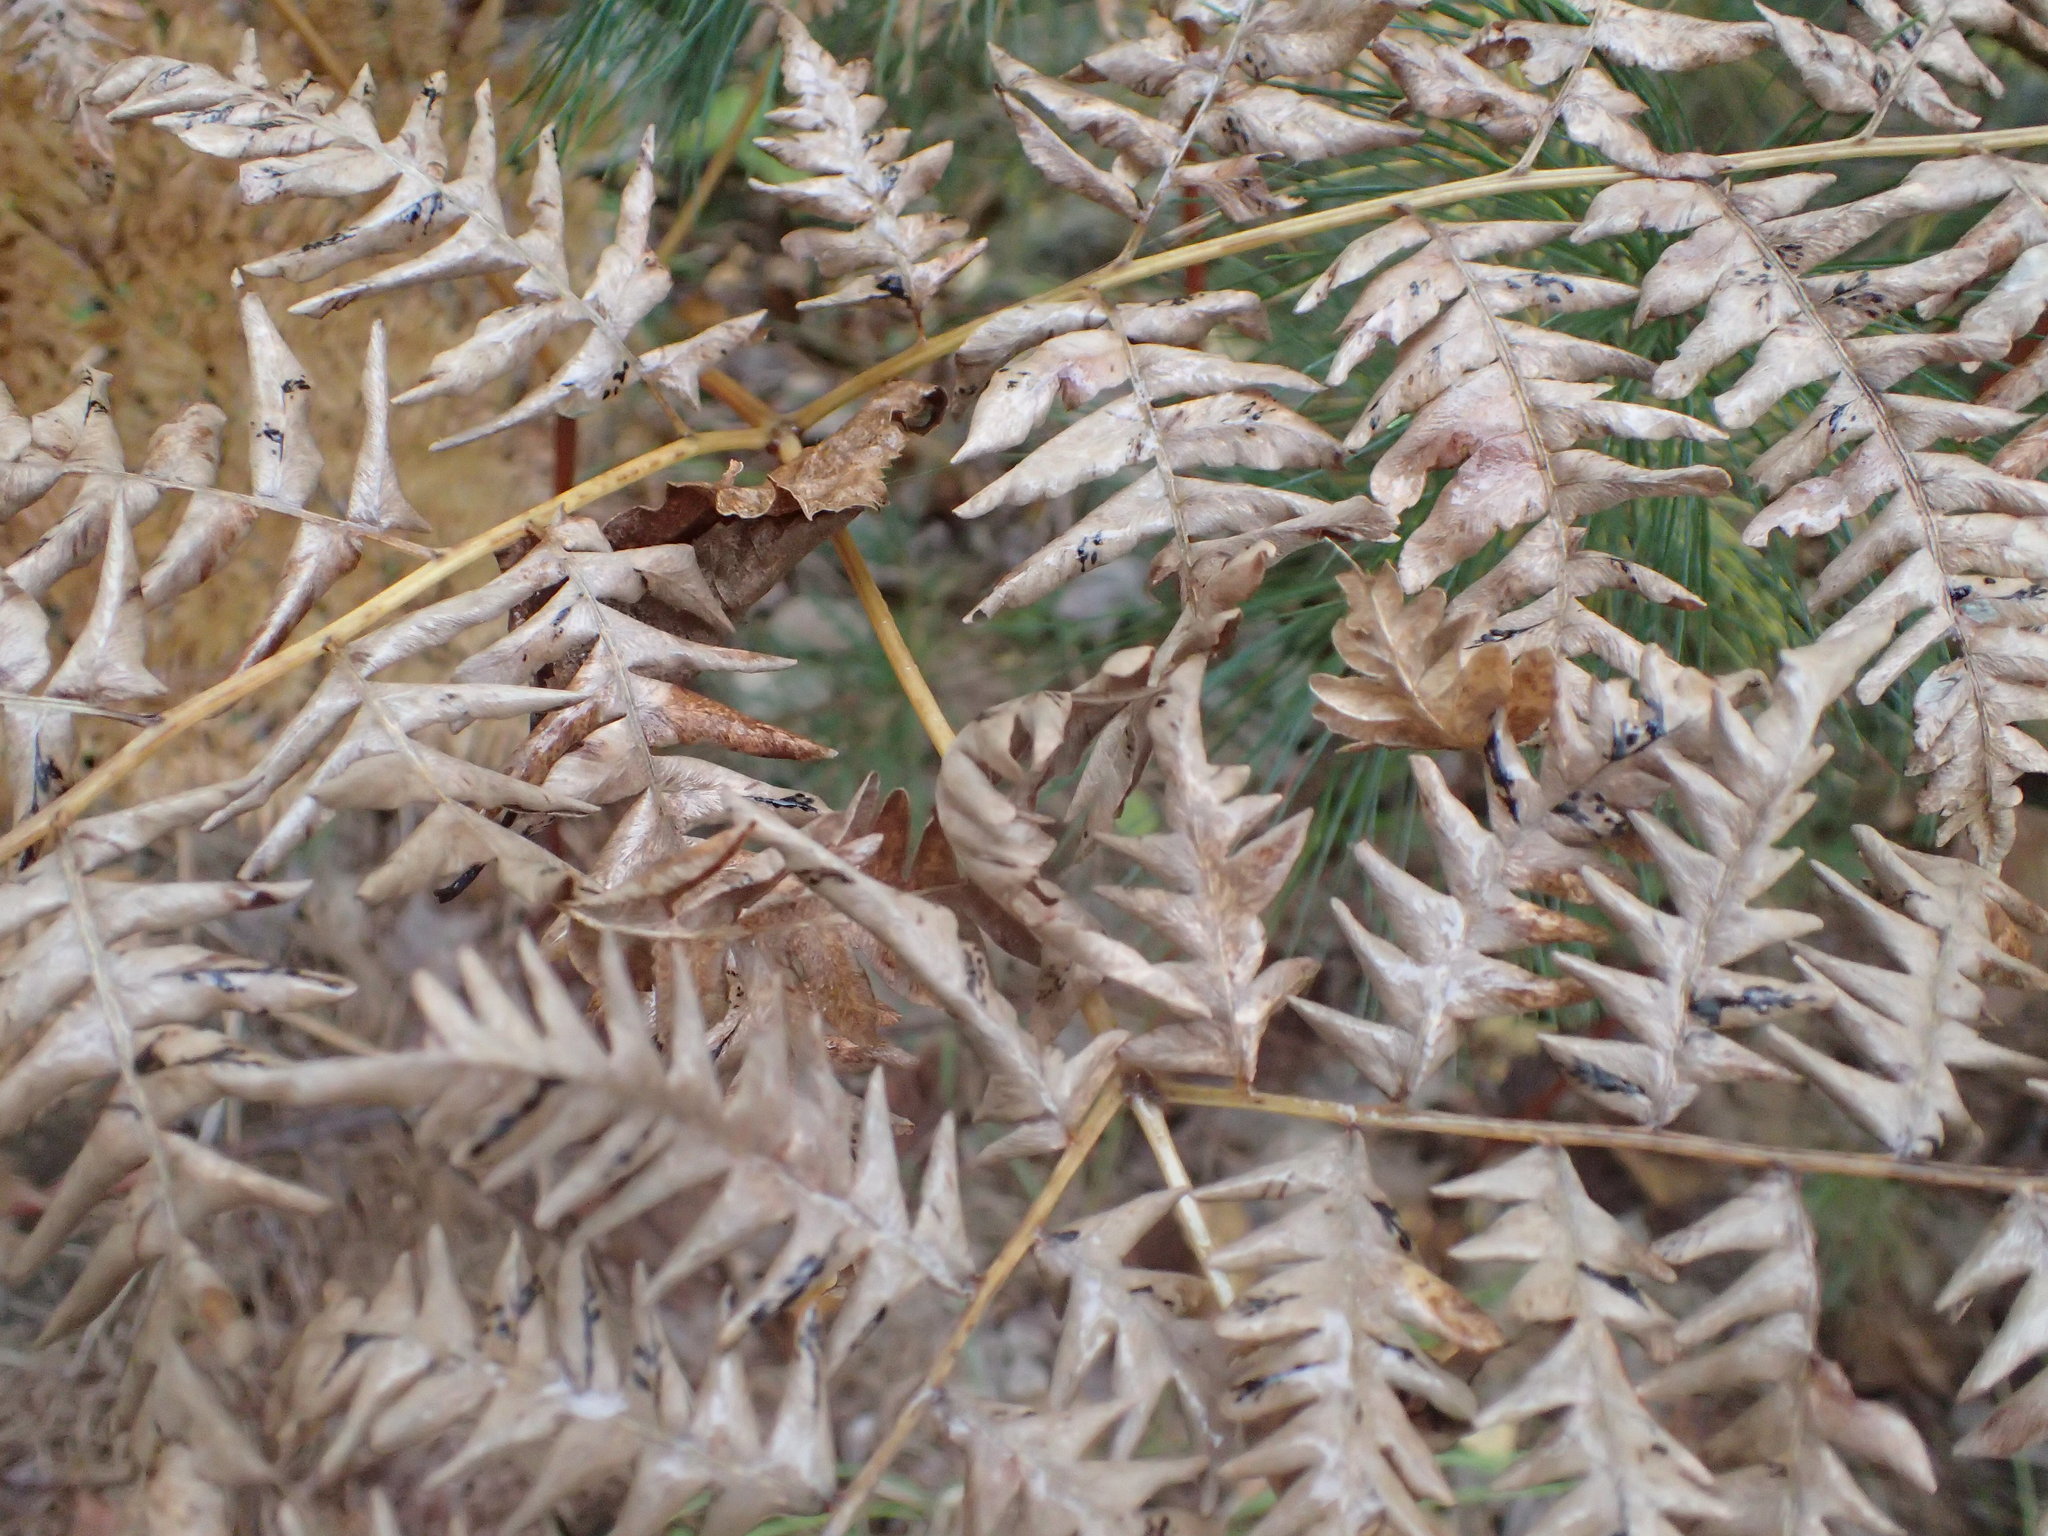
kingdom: Plantae
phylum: Tracheophyta
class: Polypodiopsida
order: Polypodiales
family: Dennstaedtiaceae
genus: Pteridium
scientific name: Pteridium aquilinum
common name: Bracken
